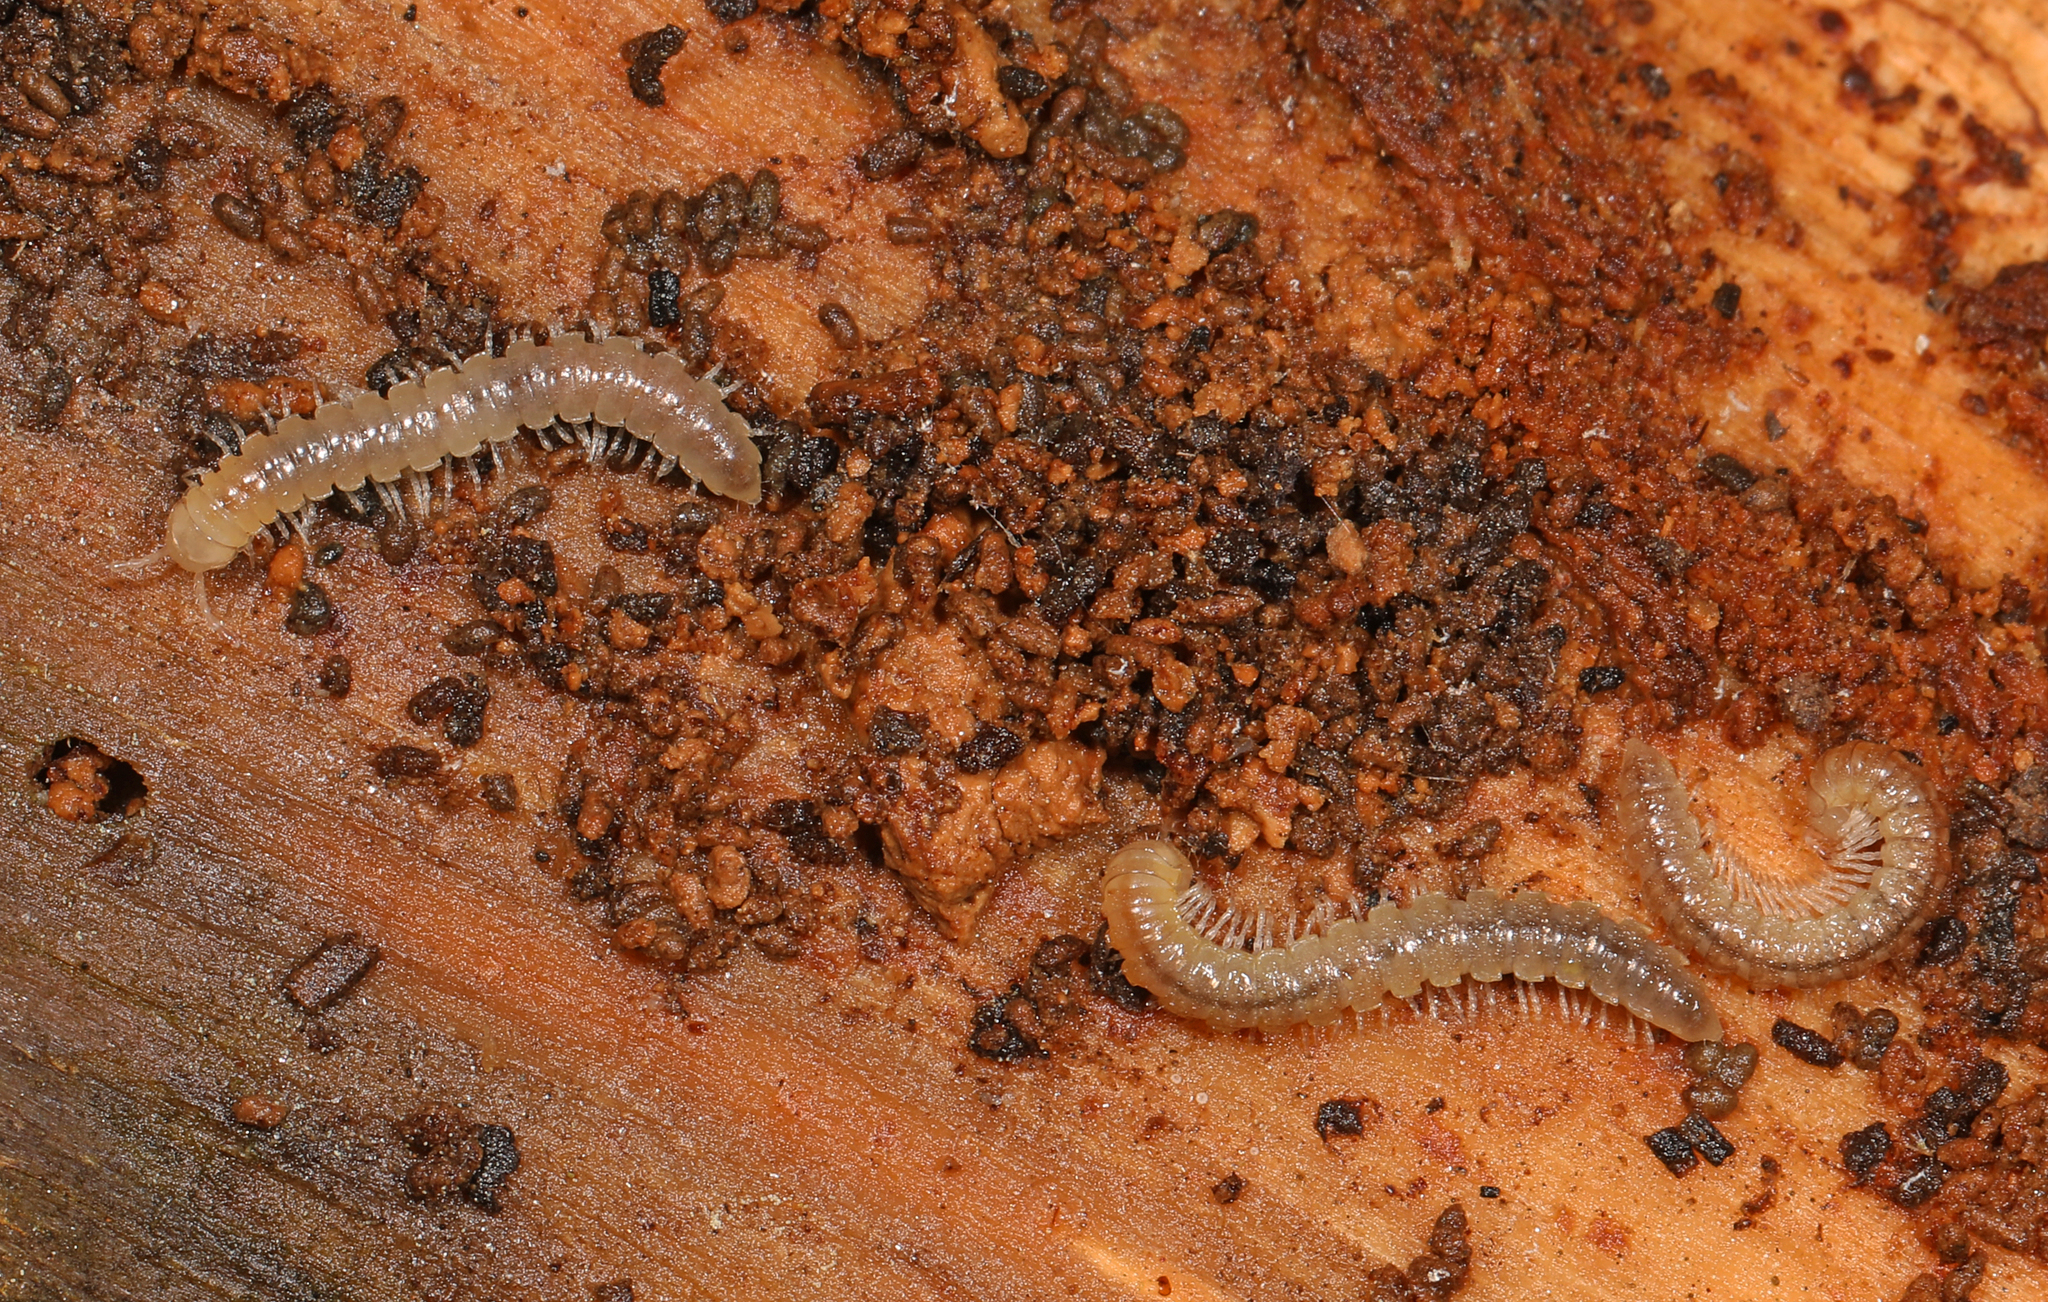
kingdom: Animalia
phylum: Arthropoda
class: Diplopoda
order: Polydesmida
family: Paradoxosomatidae
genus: Oxidus
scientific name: Oxidus gracilis
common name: Greenhouse millipede
